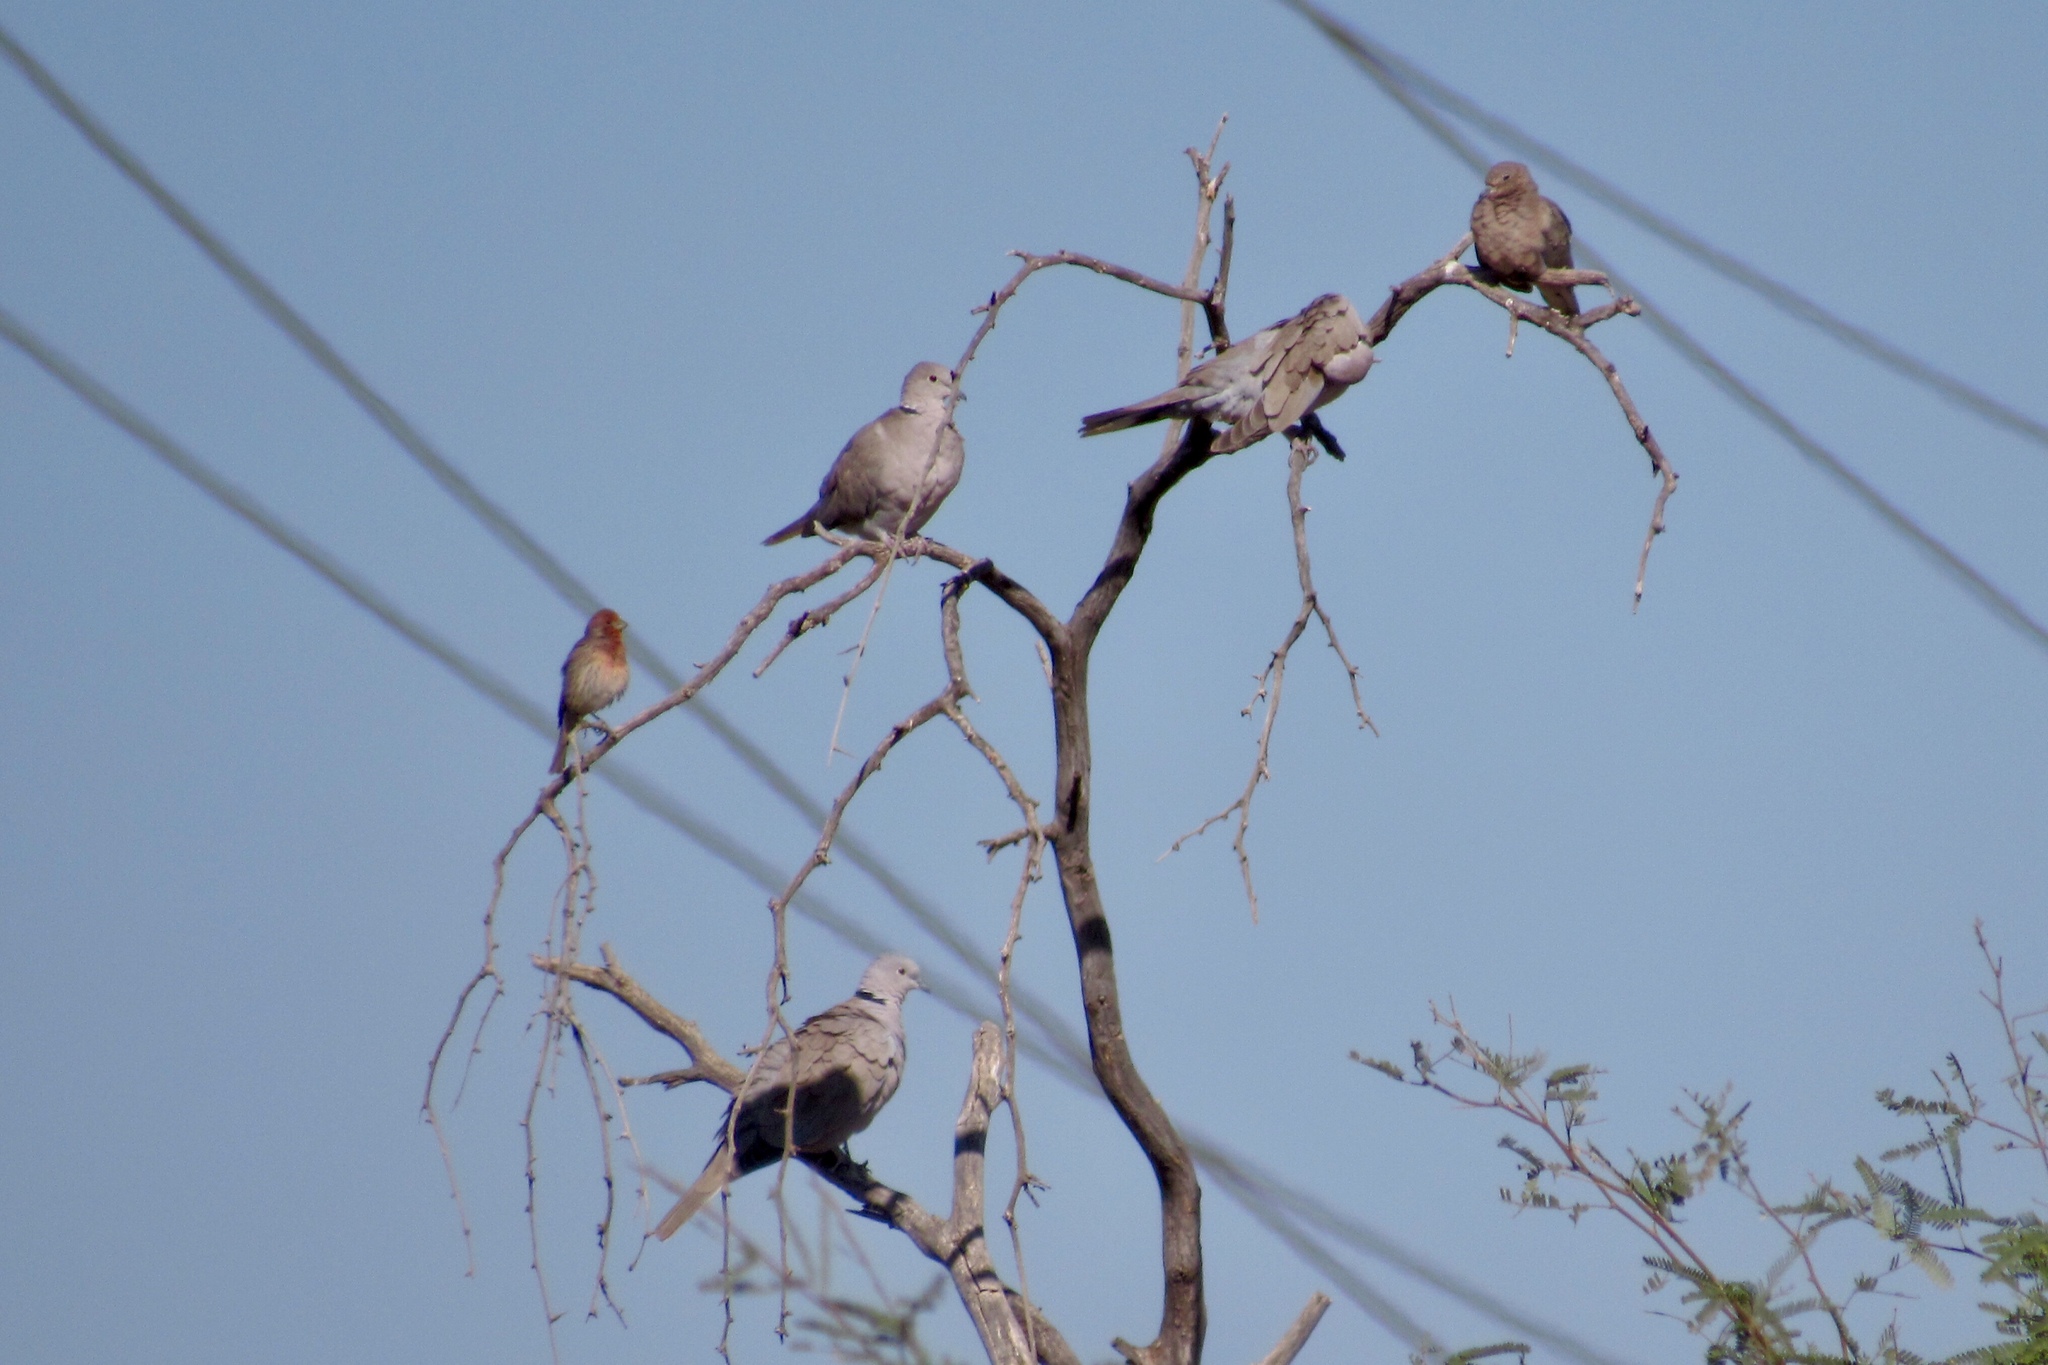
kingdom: Animalia
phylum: Chordata
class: Aves
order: Columbiformes
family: Columbidae
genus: Streptopelia
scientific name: Streptopelia decaocto
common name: Eurasian collared dove
